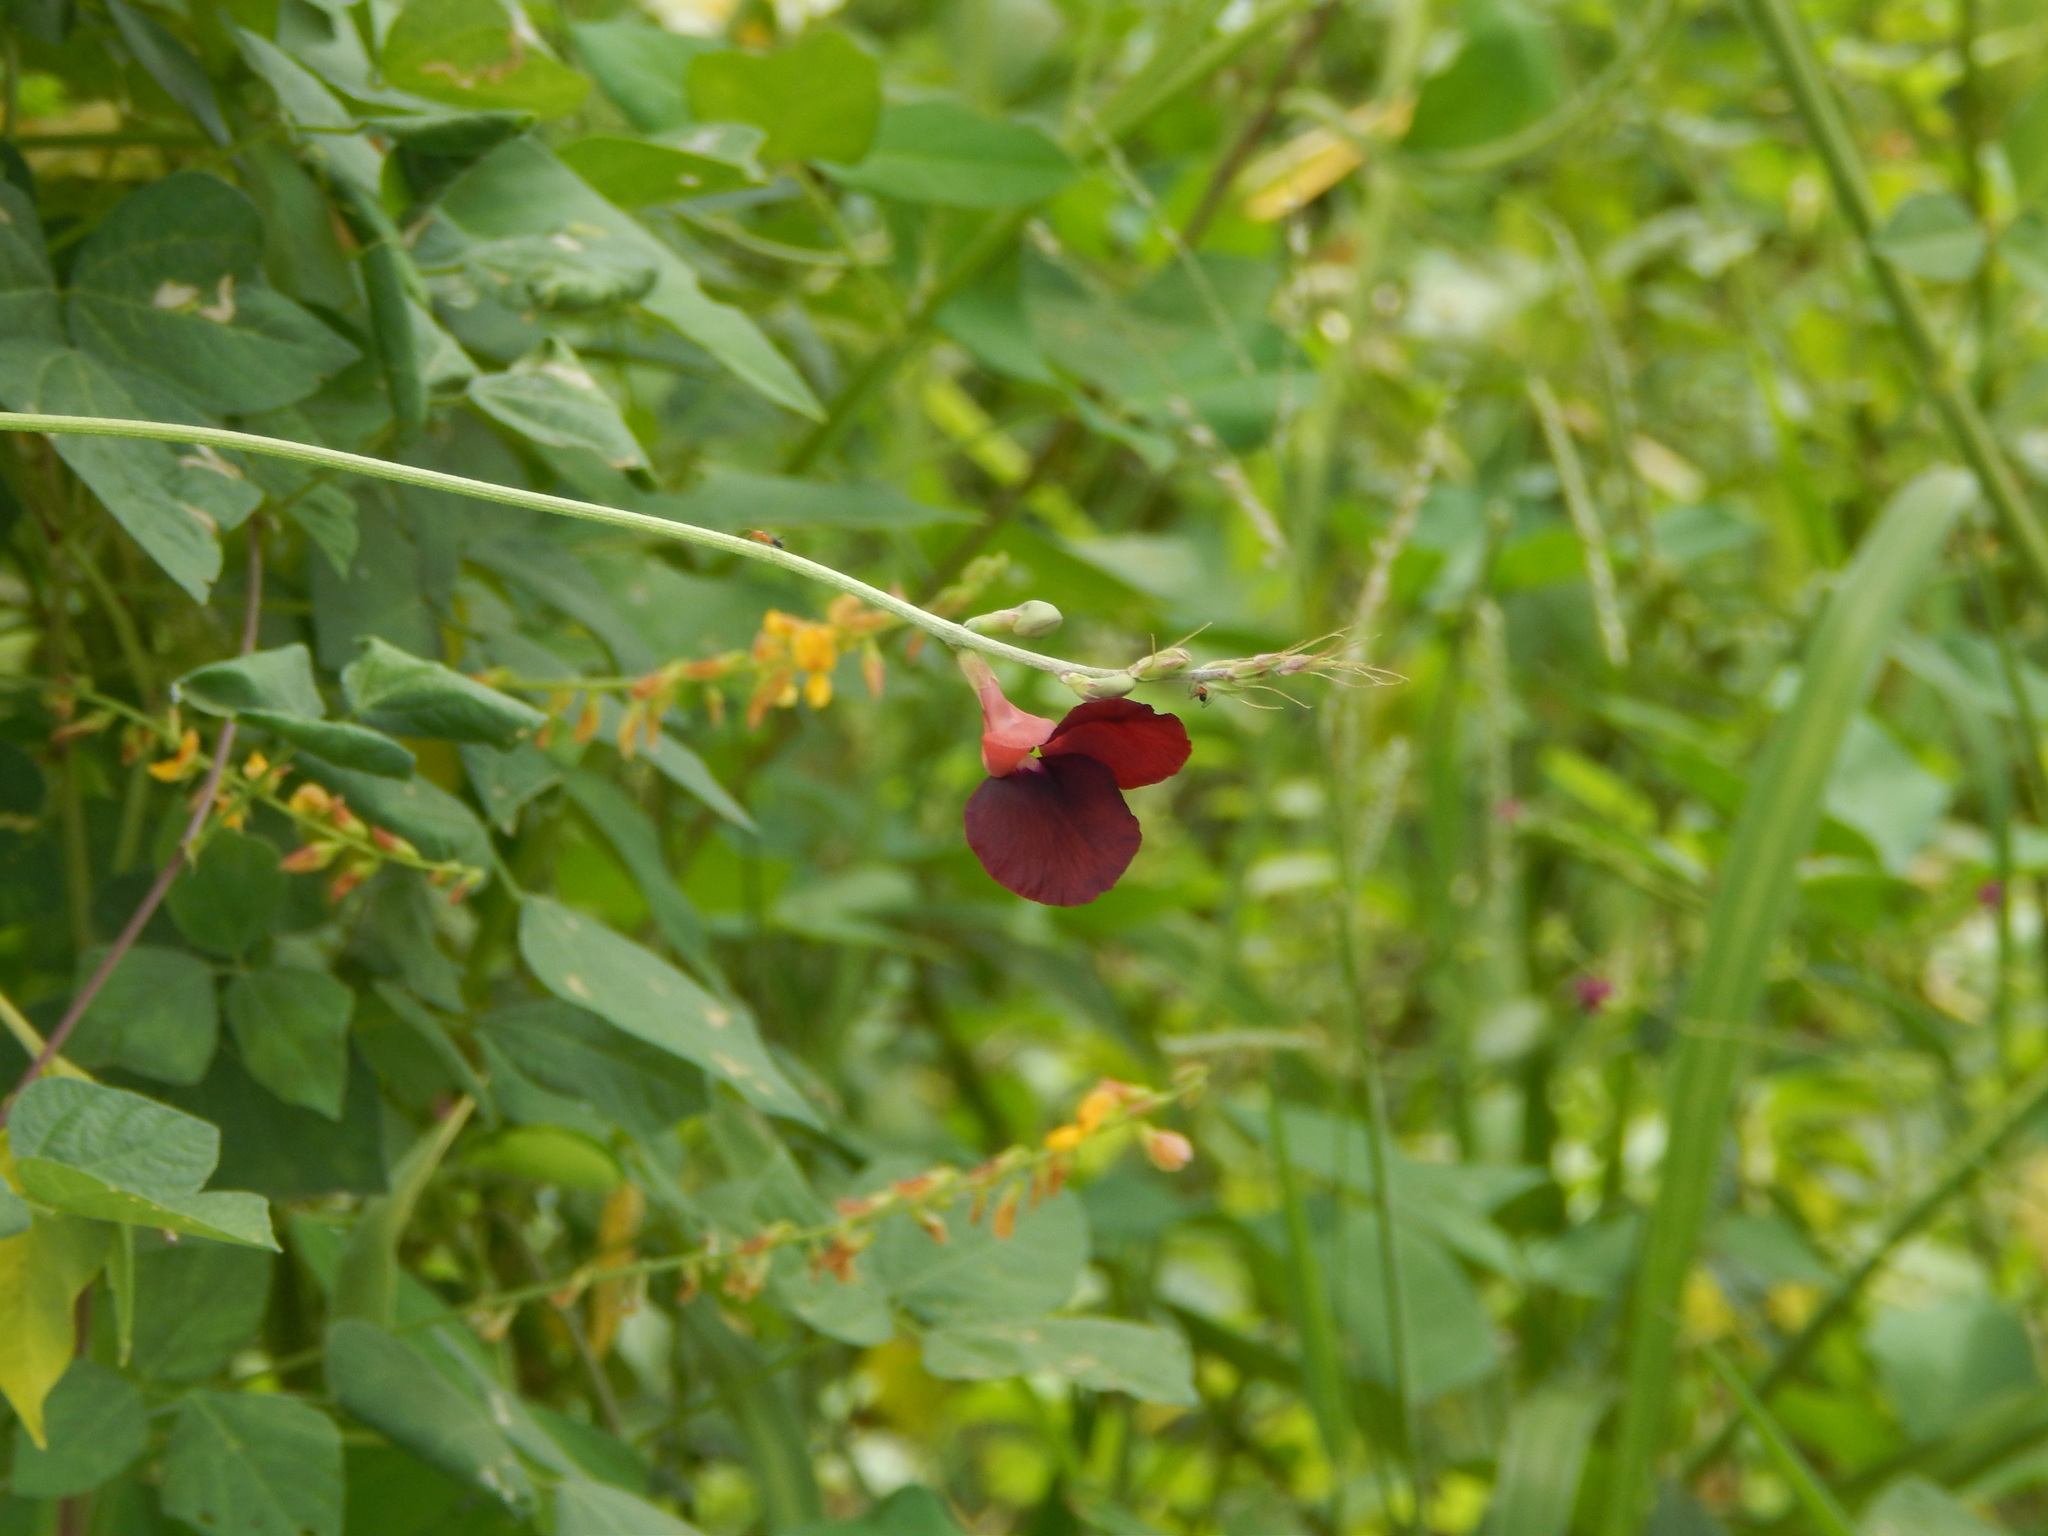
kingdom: Plantae
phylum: Tracheophyta
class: Magnoliopsida
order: Fabales
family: Fabaceae
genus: Macroptilium
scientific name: Macroptilium lathyroides
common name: Wild bushbean
